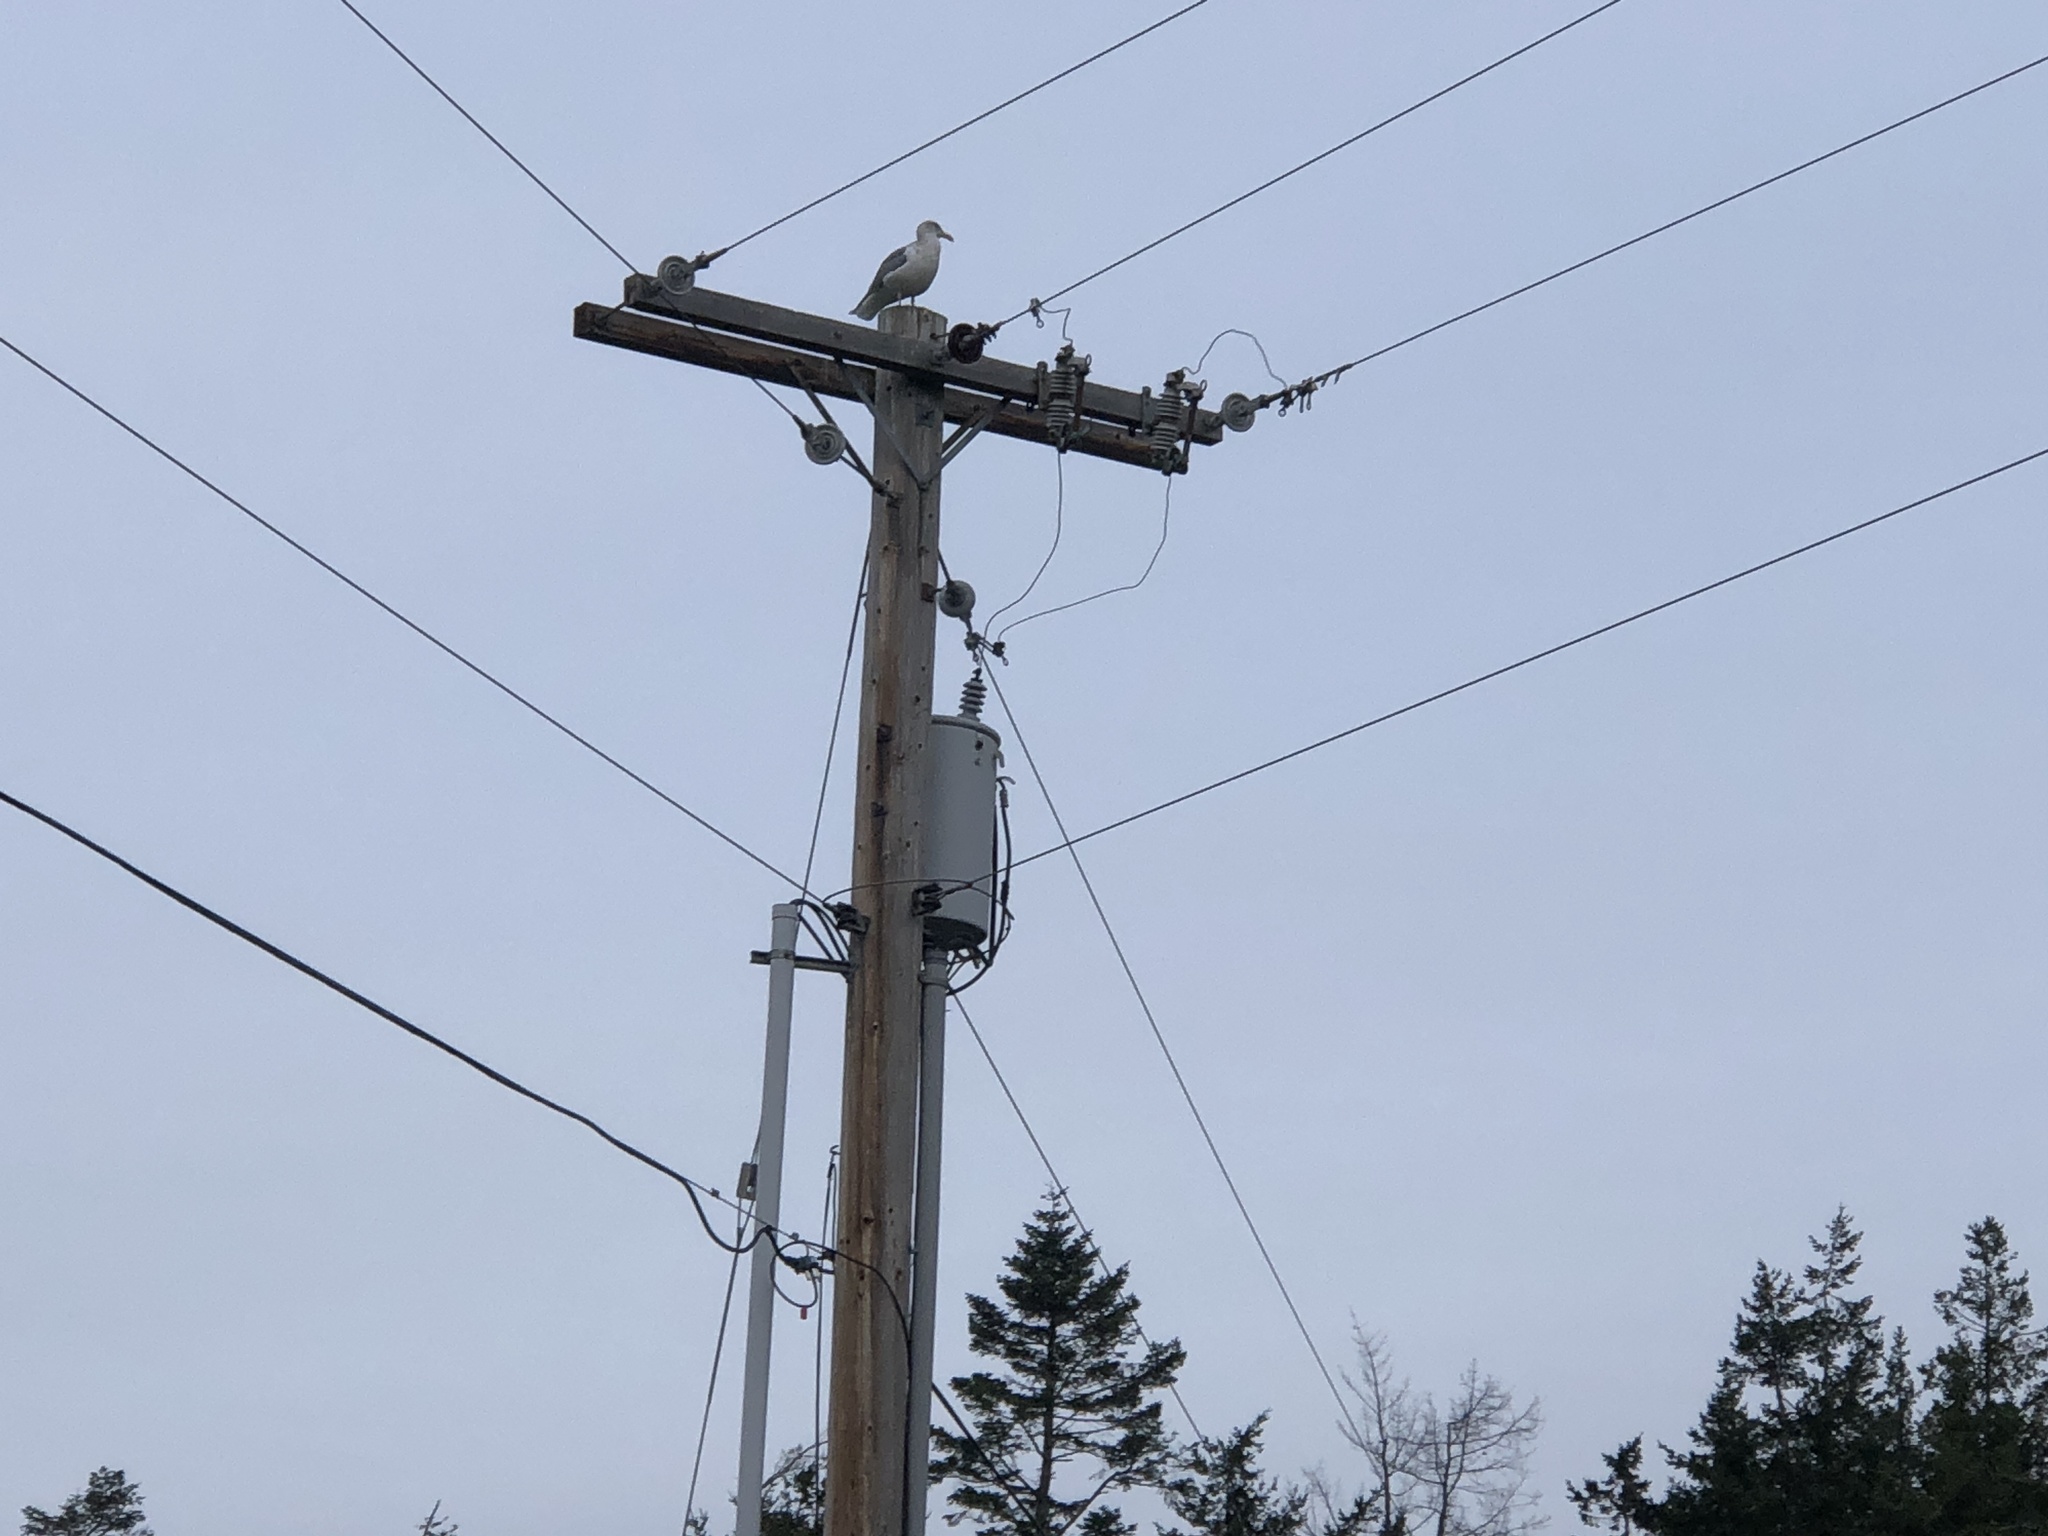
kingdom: Animalia
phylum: Chordata
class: Aves
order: Charadriiformes
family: Laridae
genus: Larus
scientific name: Larus
